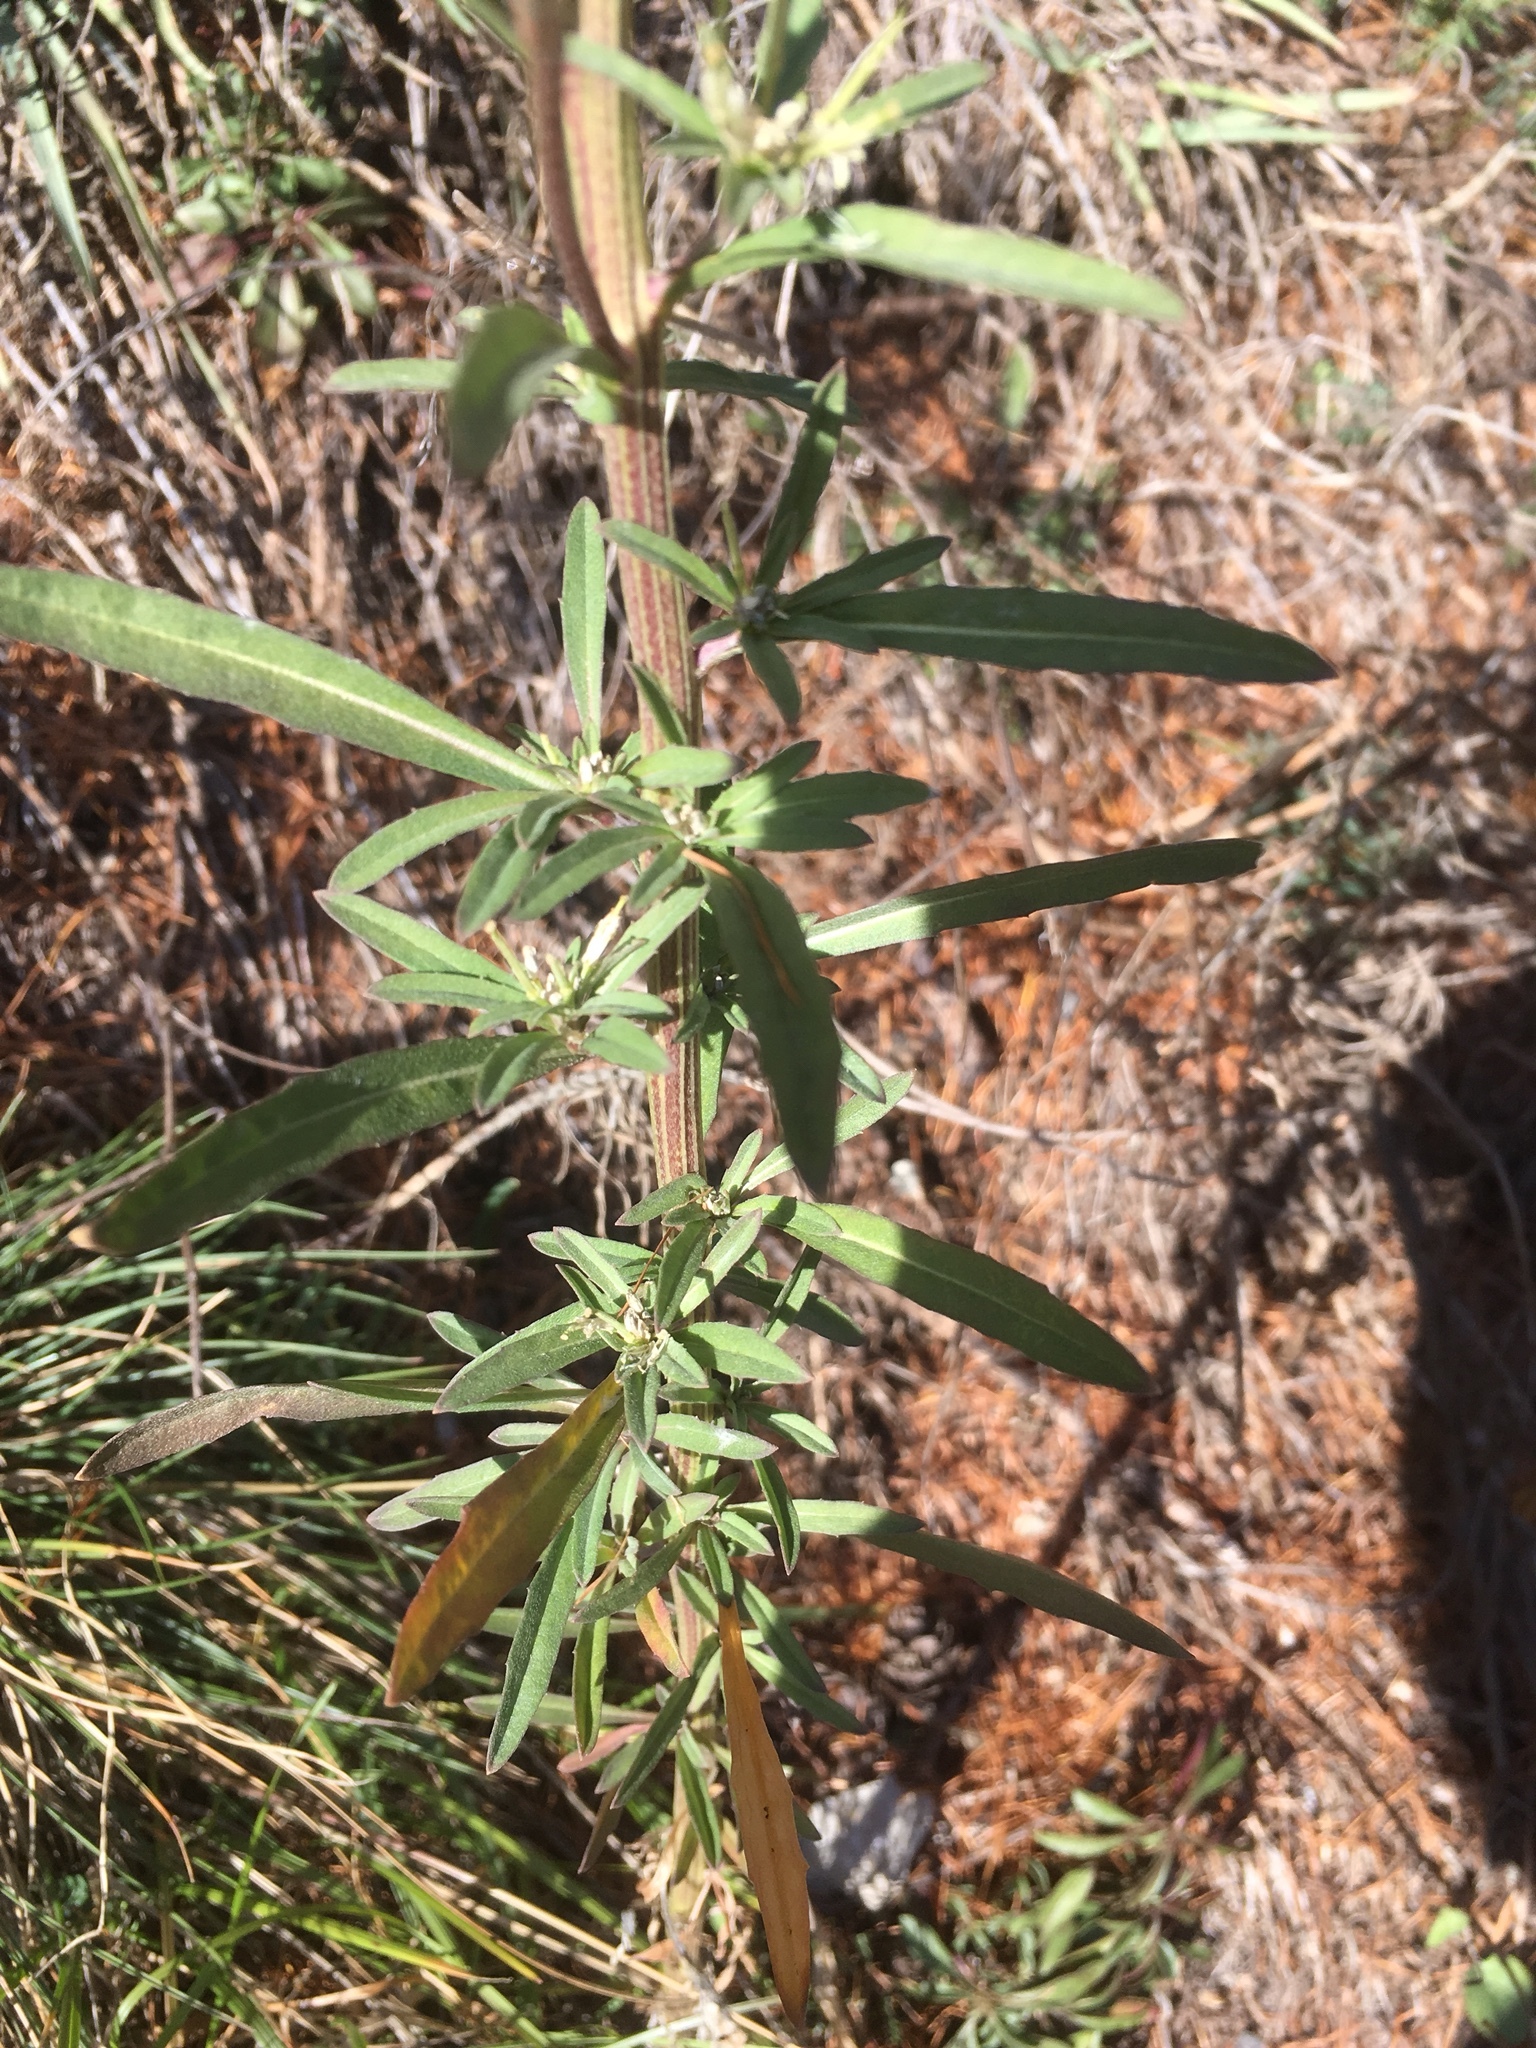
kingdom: Plantae
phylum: Tracheophyta
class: Magnoliopsida
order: Brassicales
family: Brassicaceae
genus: Erysimum
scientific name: Erysimum virgatum
